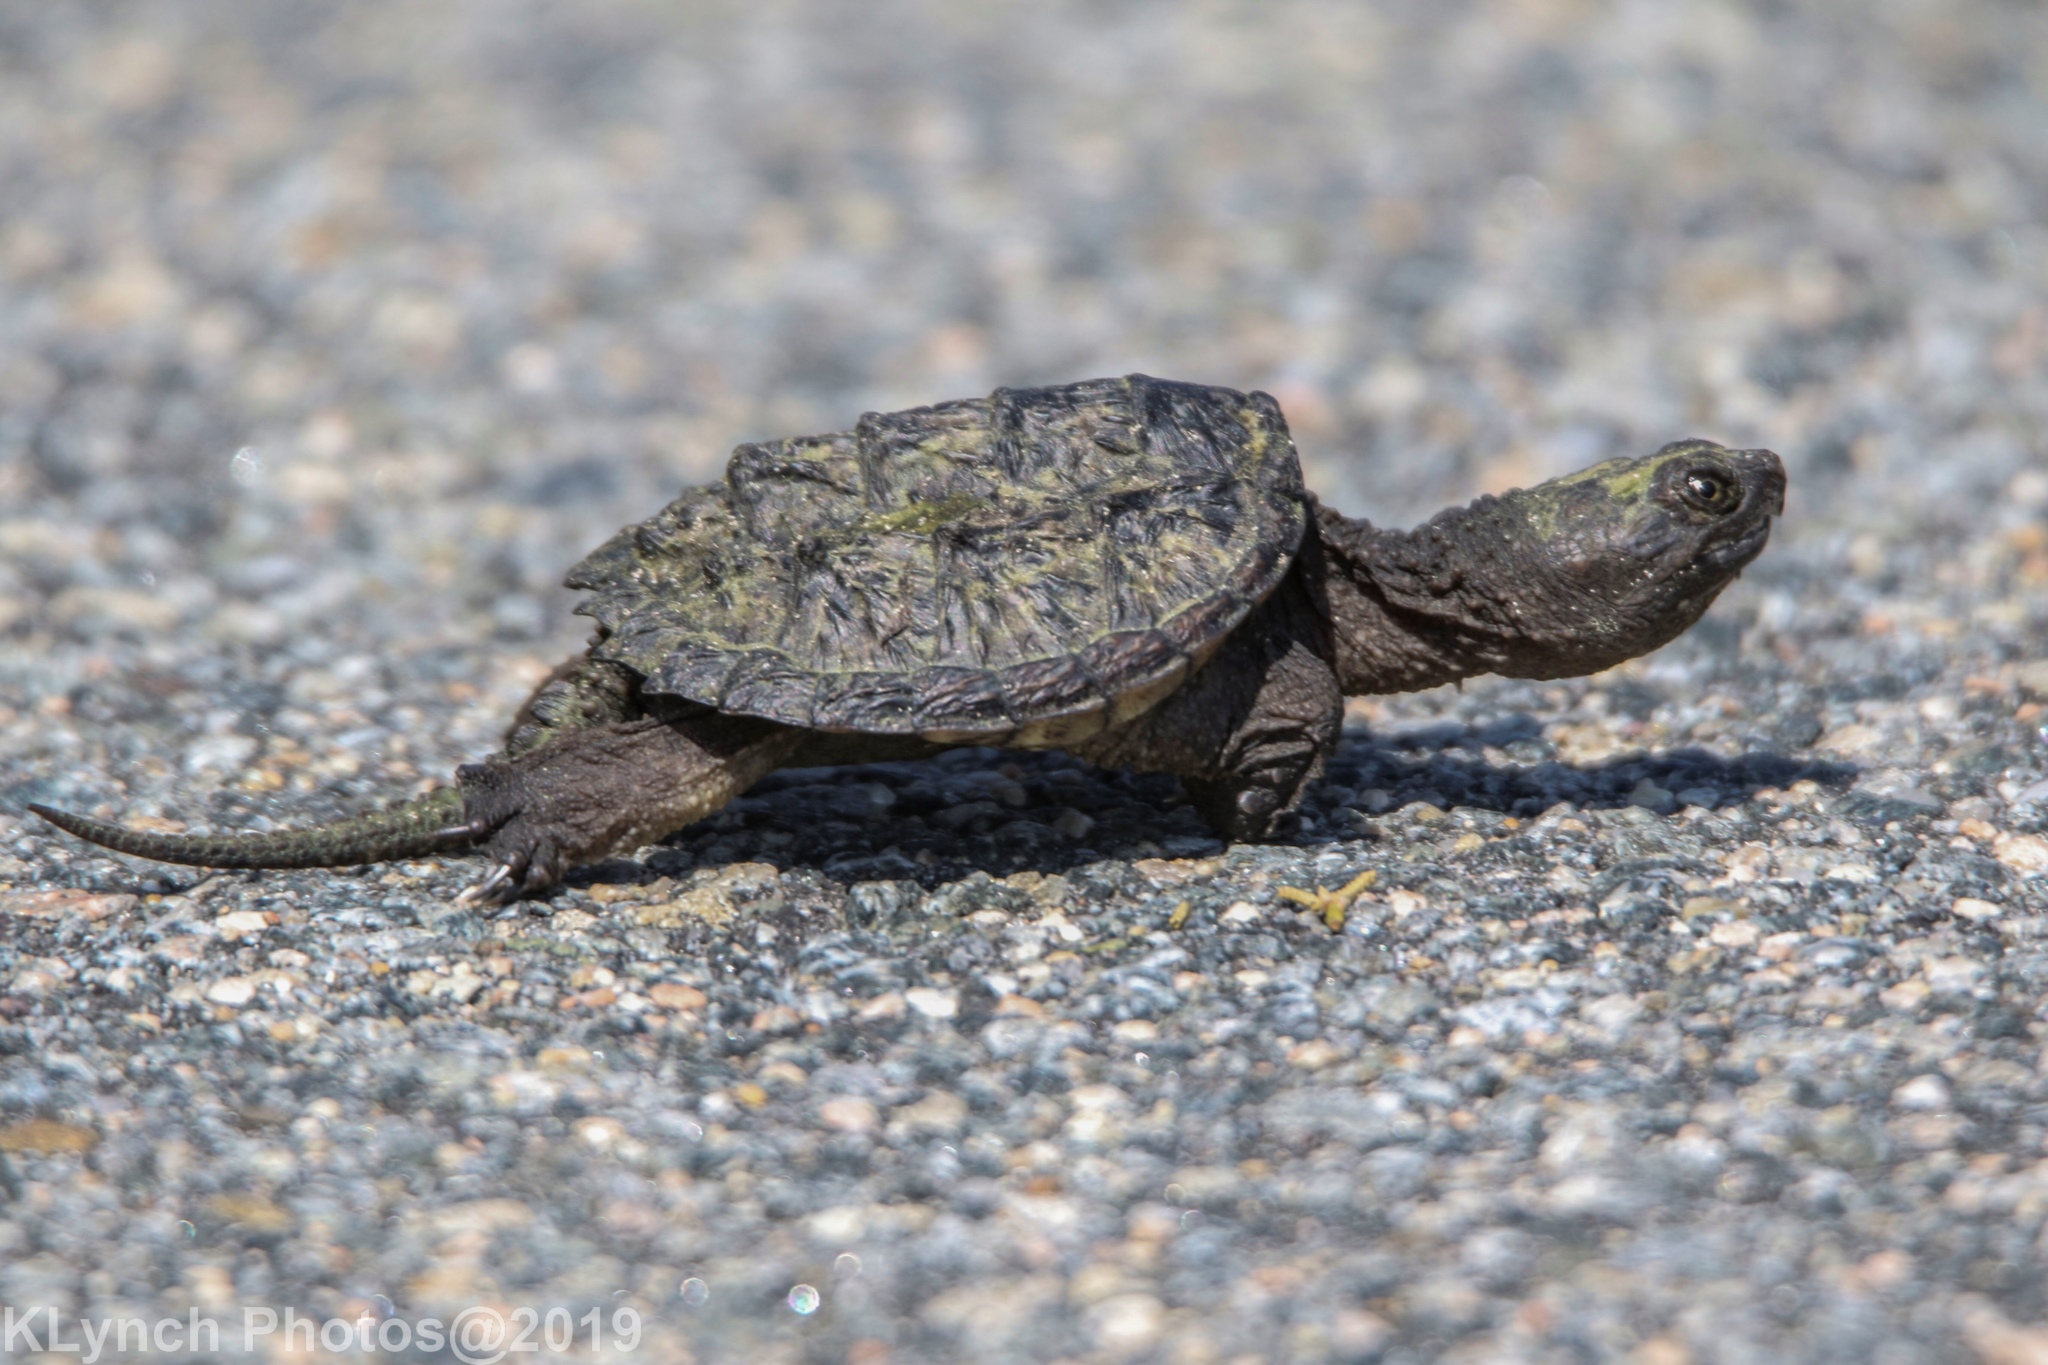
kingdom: Animalia
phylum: Chordata
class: Testudines
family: Chelydridae
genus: Chelydra
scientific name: Chelydra serpentina
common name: Common snapping turtle
